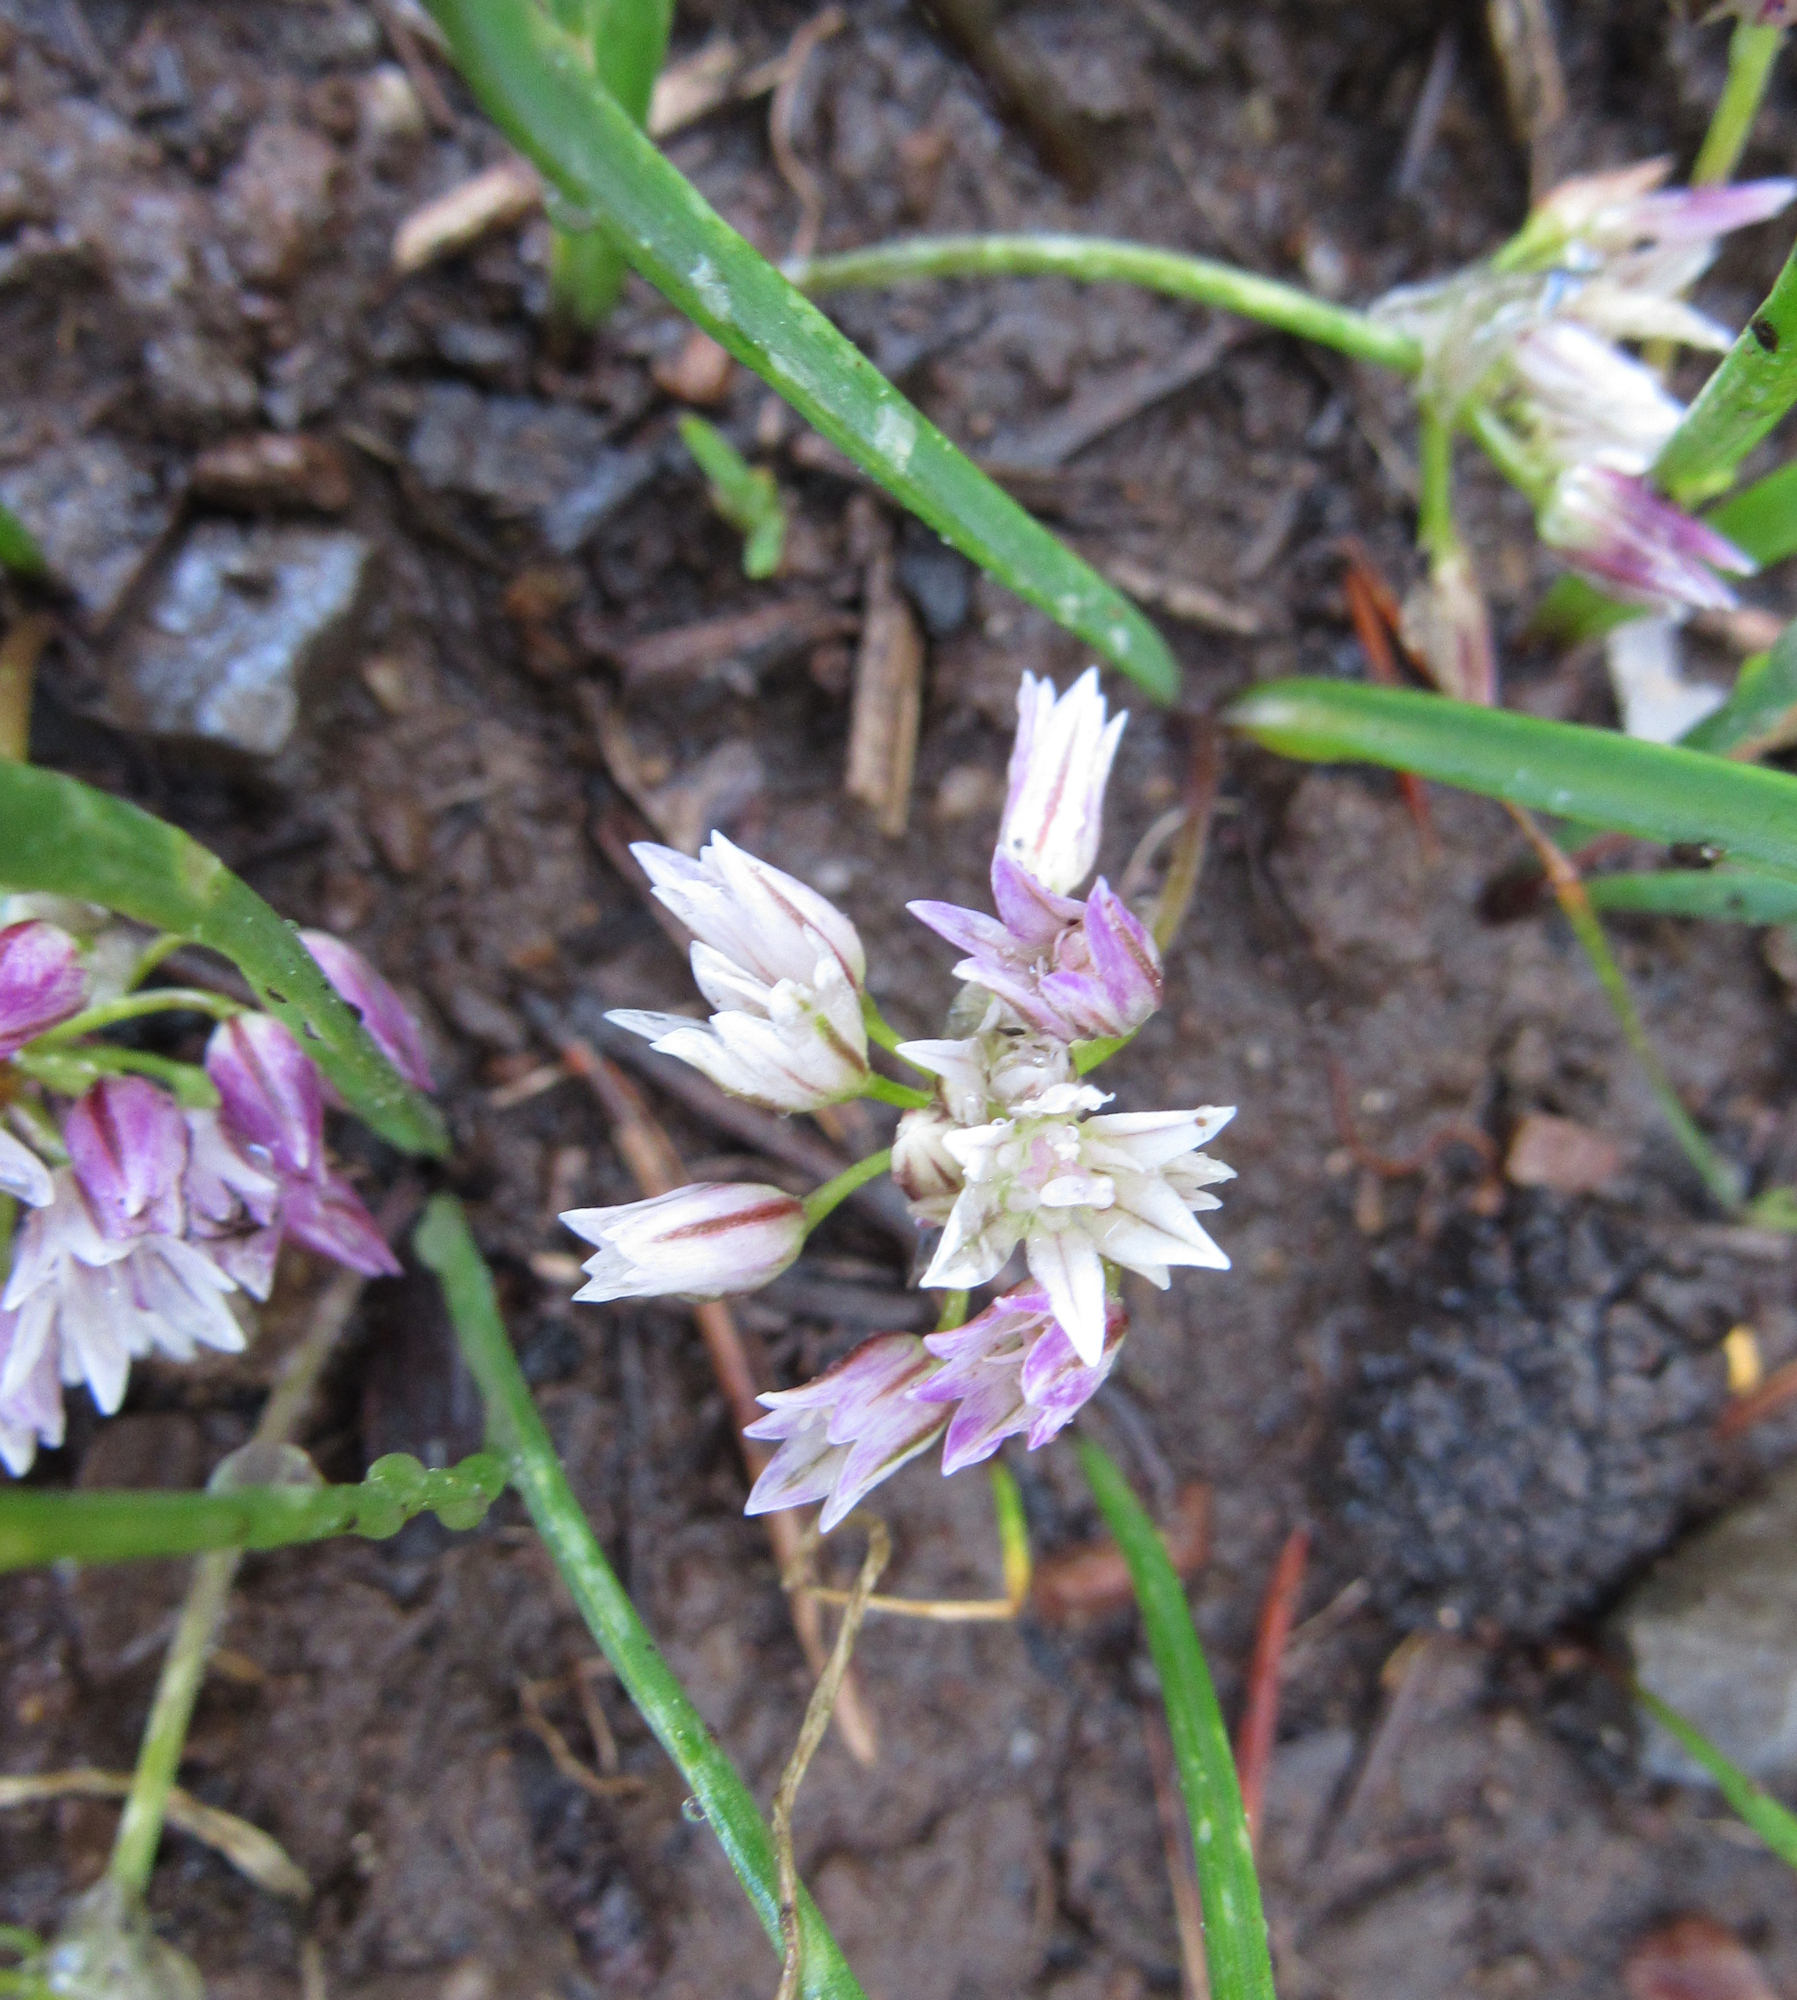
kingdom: Plantae
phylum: Tracheophyta
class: Liliopsida
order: Asparagales
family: Amaryllidaceae
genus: Allium
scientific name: Allium brandegeei
